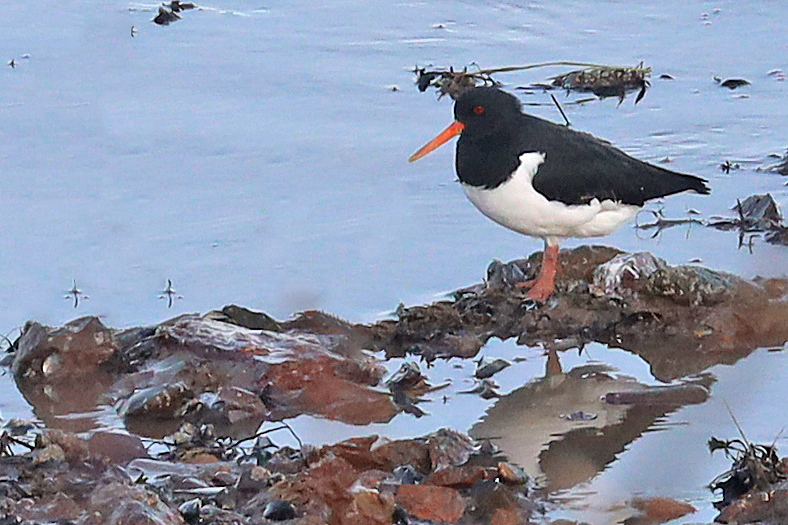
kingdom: Animalia
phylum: Chordata
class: Aves
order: Charadriiformes
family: Haematopodidae
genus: Haematopus
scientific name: Haematopus ostralegus
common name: Eurasian oystercatcher
